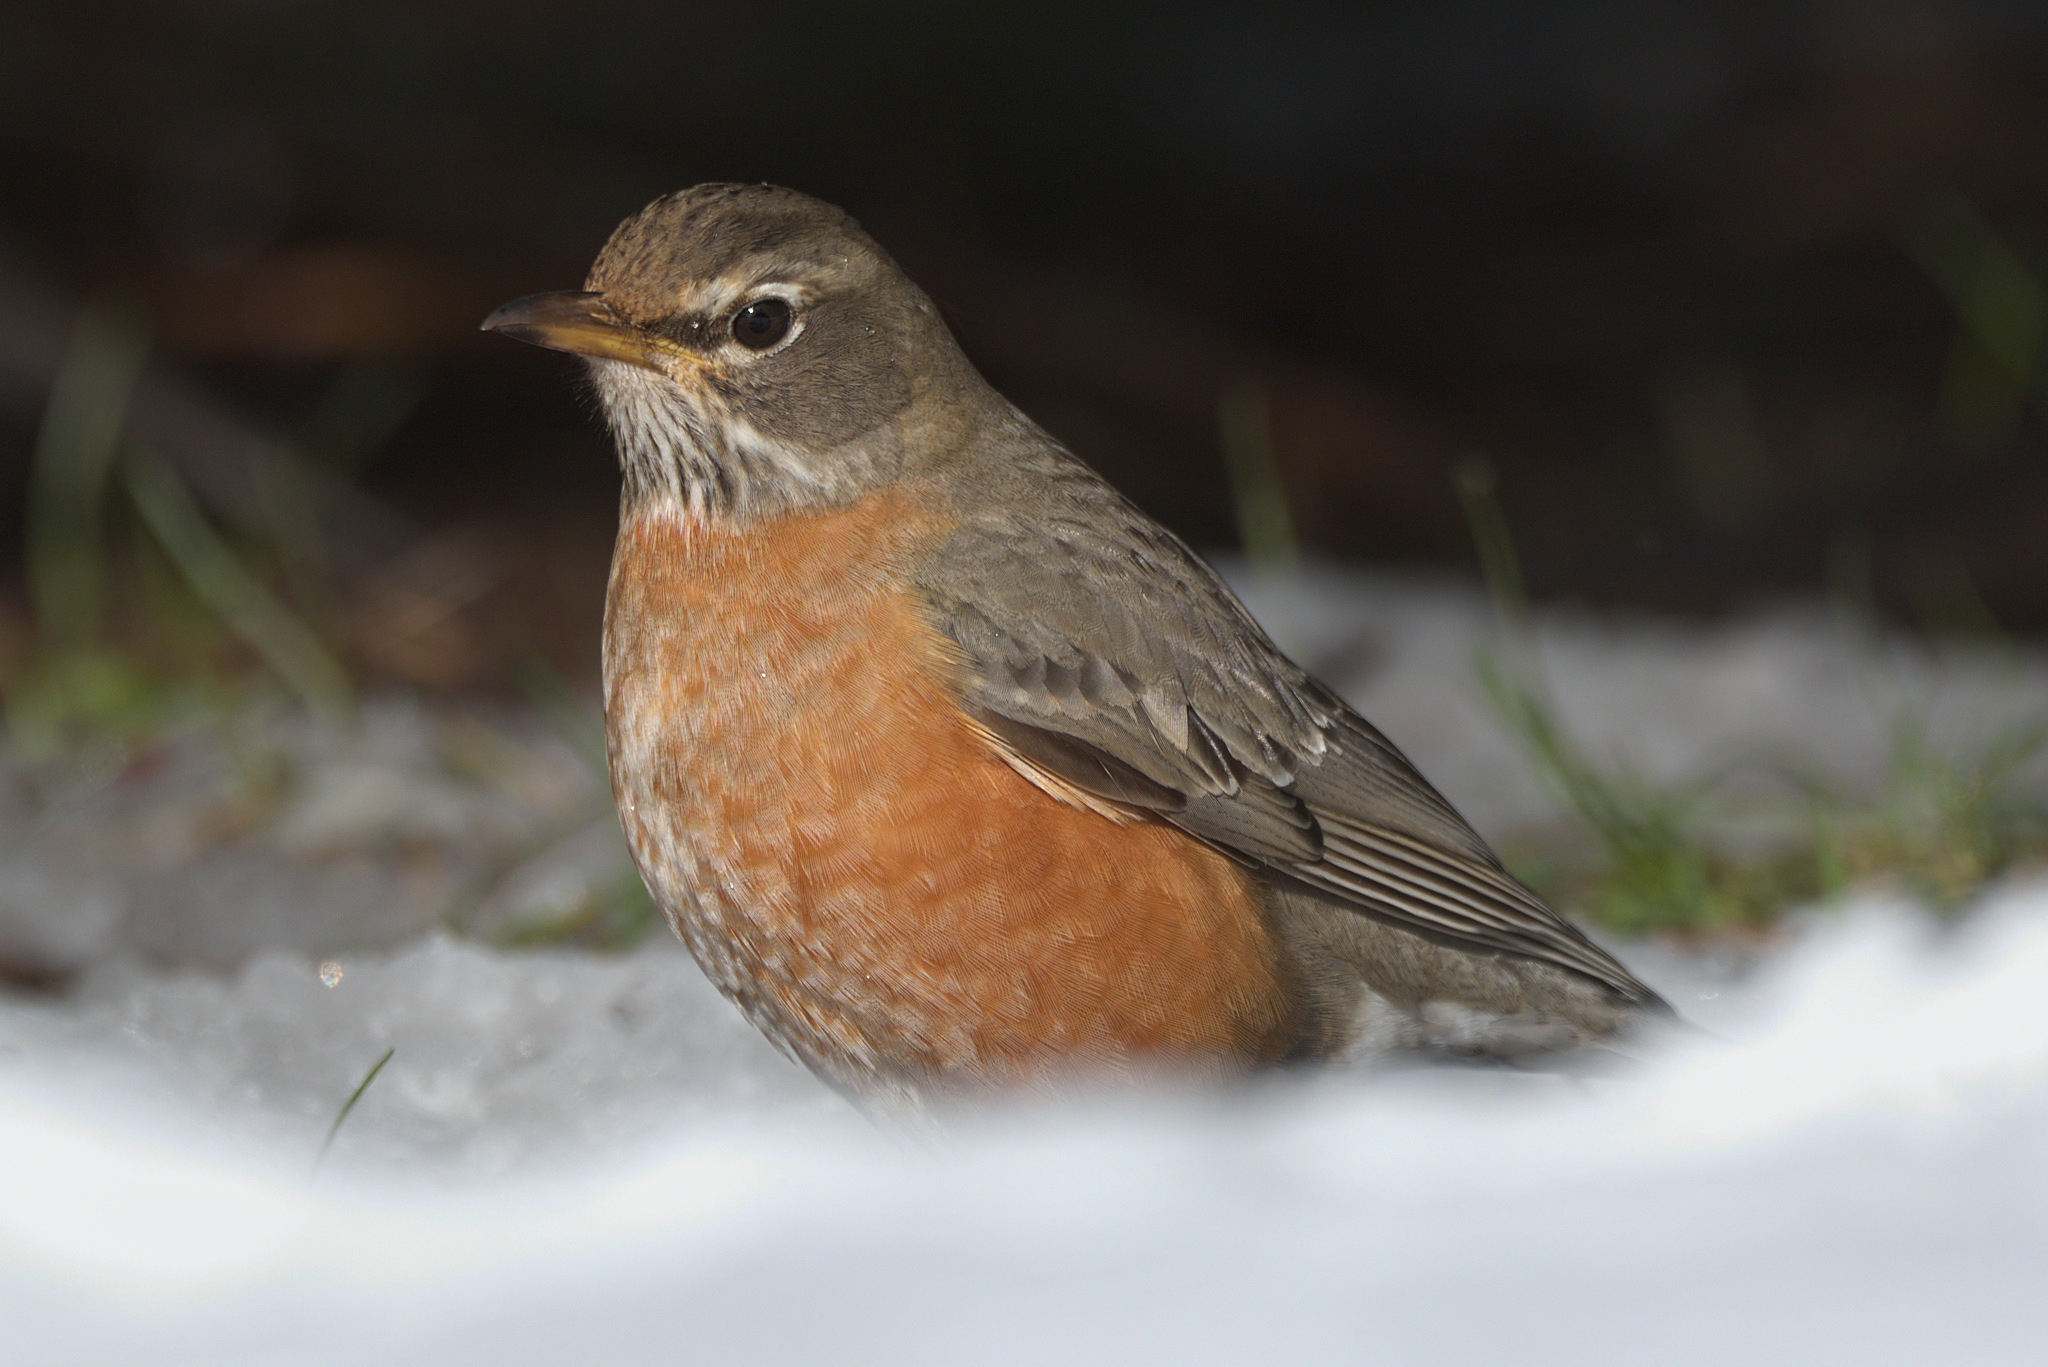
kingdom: Animalia
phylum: Chordata
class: Aves
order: Passeriformes
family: Turdidae
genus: Turdus
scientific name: Turdus migratorius
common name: American robin
